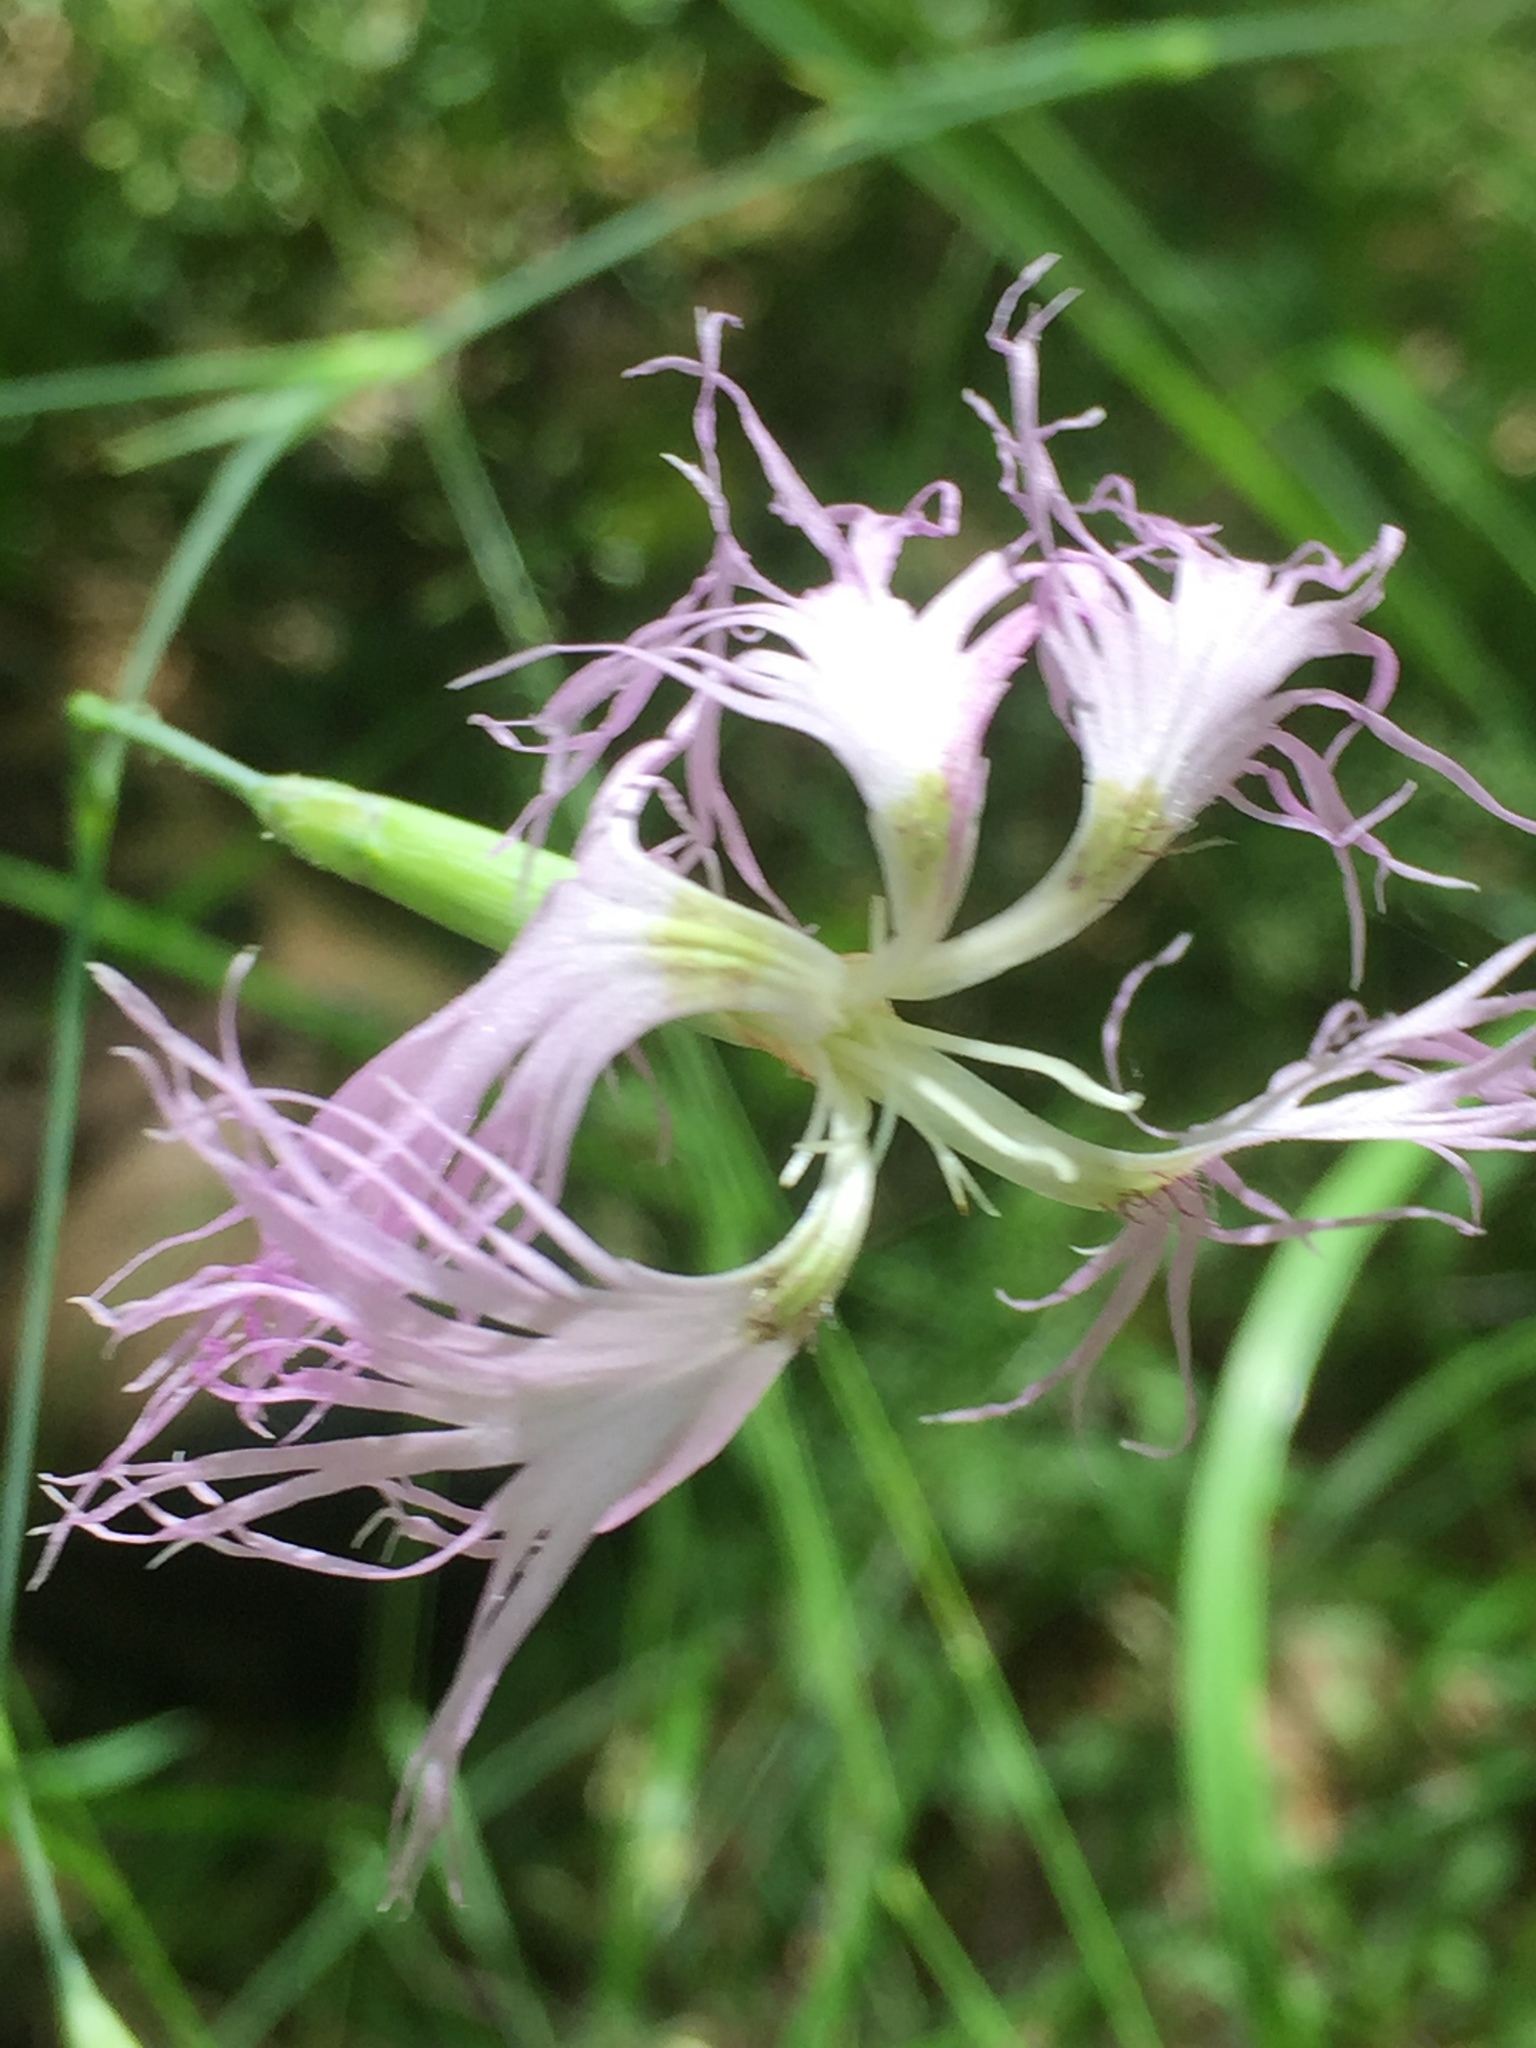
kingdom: Plantae
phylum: Tracheophyta
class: Magnoliopsida
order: Caryophyllales
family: Caryophyllaceae
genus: Dianthus
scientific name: Dianthus superbus
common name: Fringed pink
